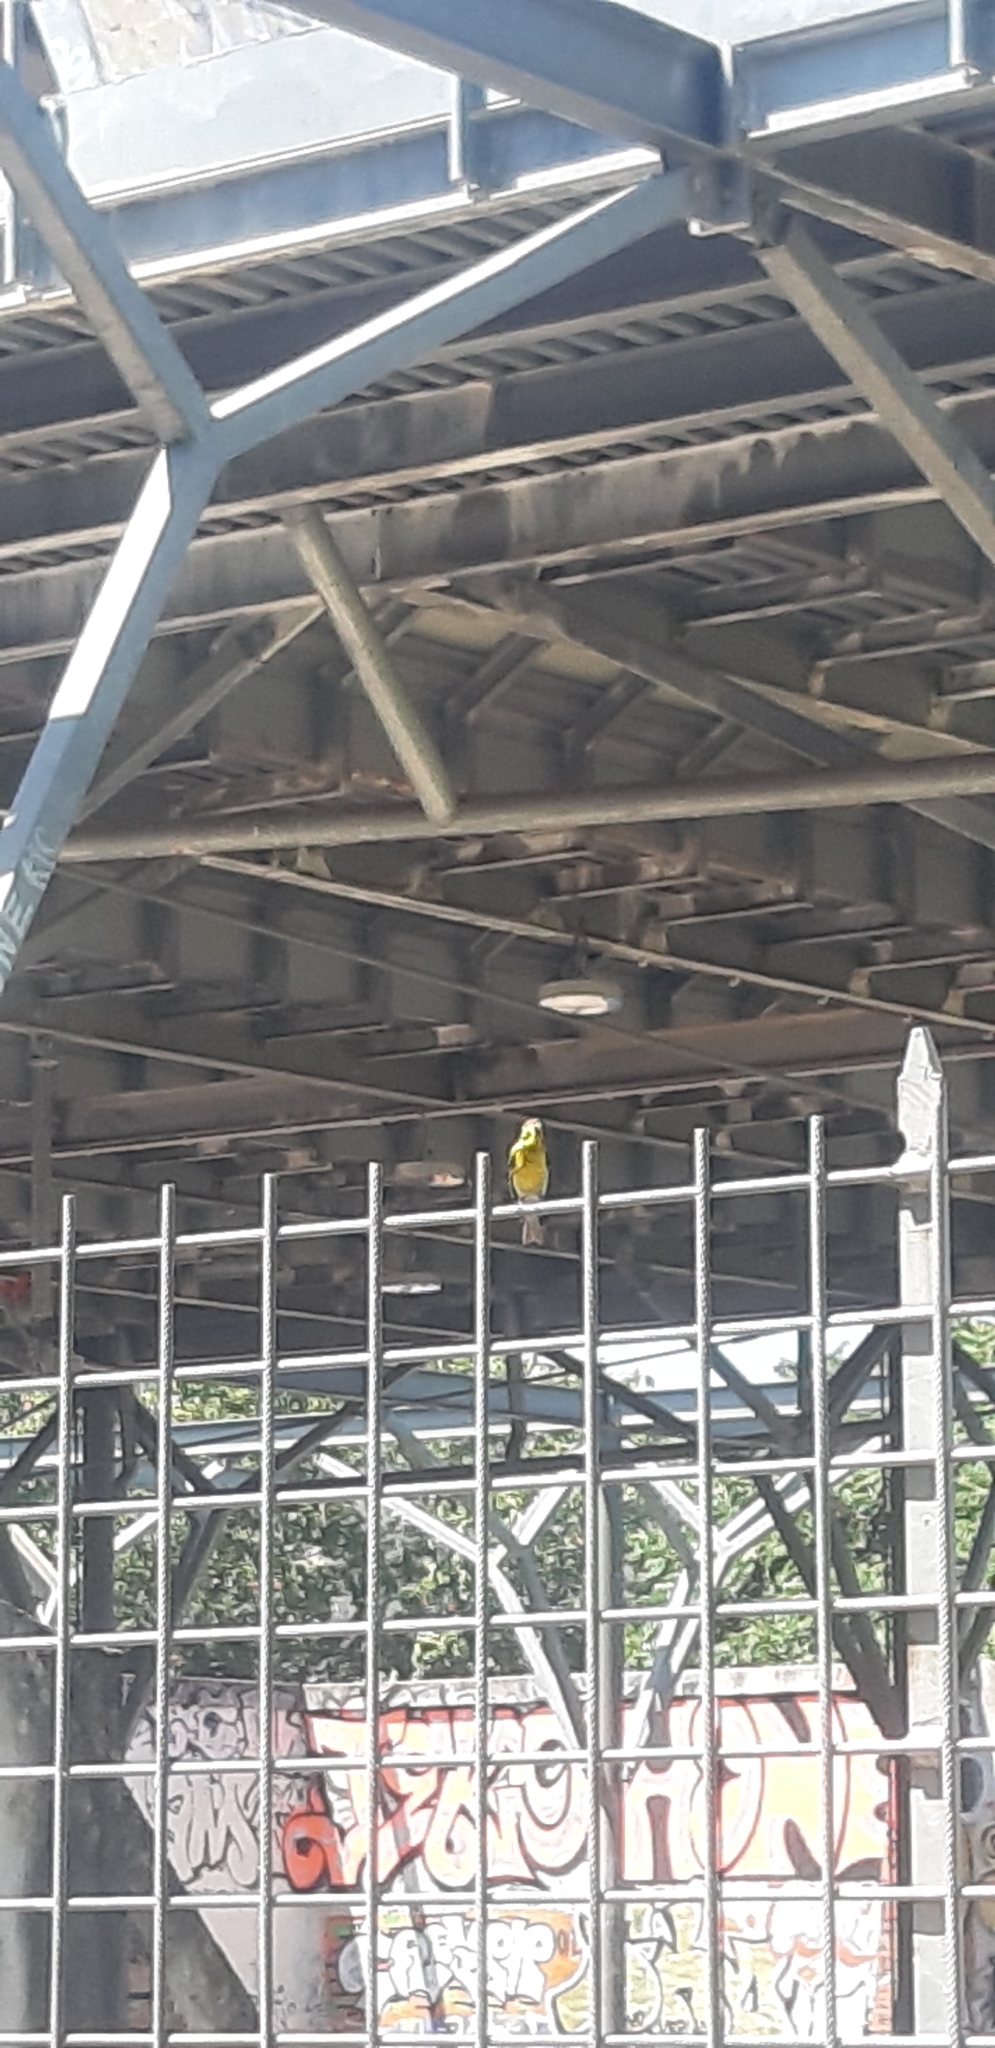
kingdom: Animalia
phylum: Chordata
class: Aves
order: Passeriformes
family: Fringillidae
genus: Serinus
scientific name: Serinus serinus
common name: European serin
